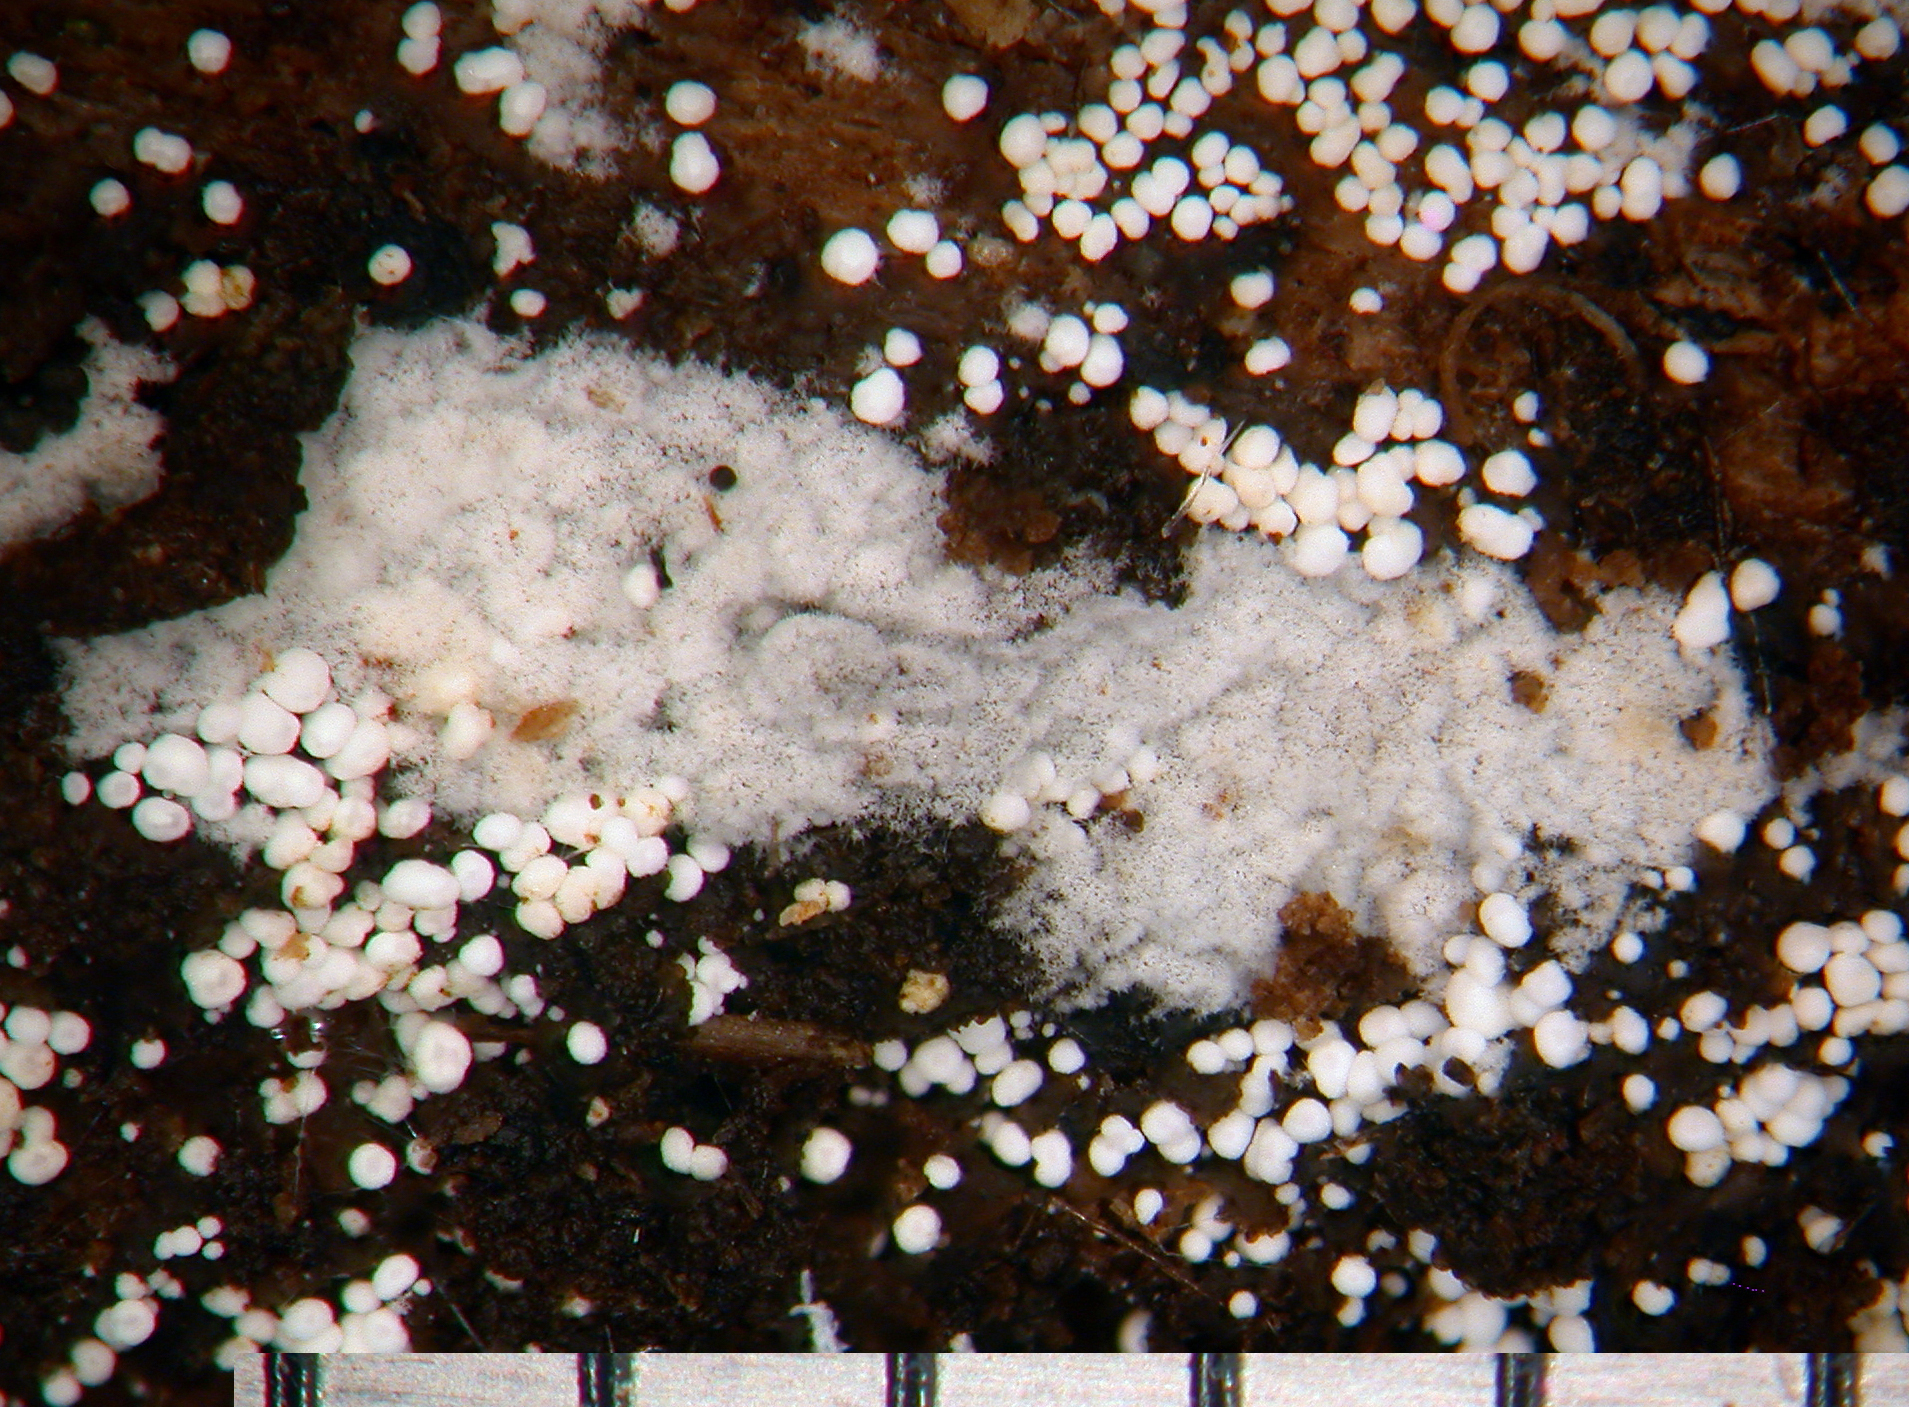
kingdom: Fungi
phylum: Basidiomycota
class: Agaricomycetes
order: Trechisporales
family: Hydnodontaceae
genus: Subulicystidium
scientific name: Subulicystidium longisporum
